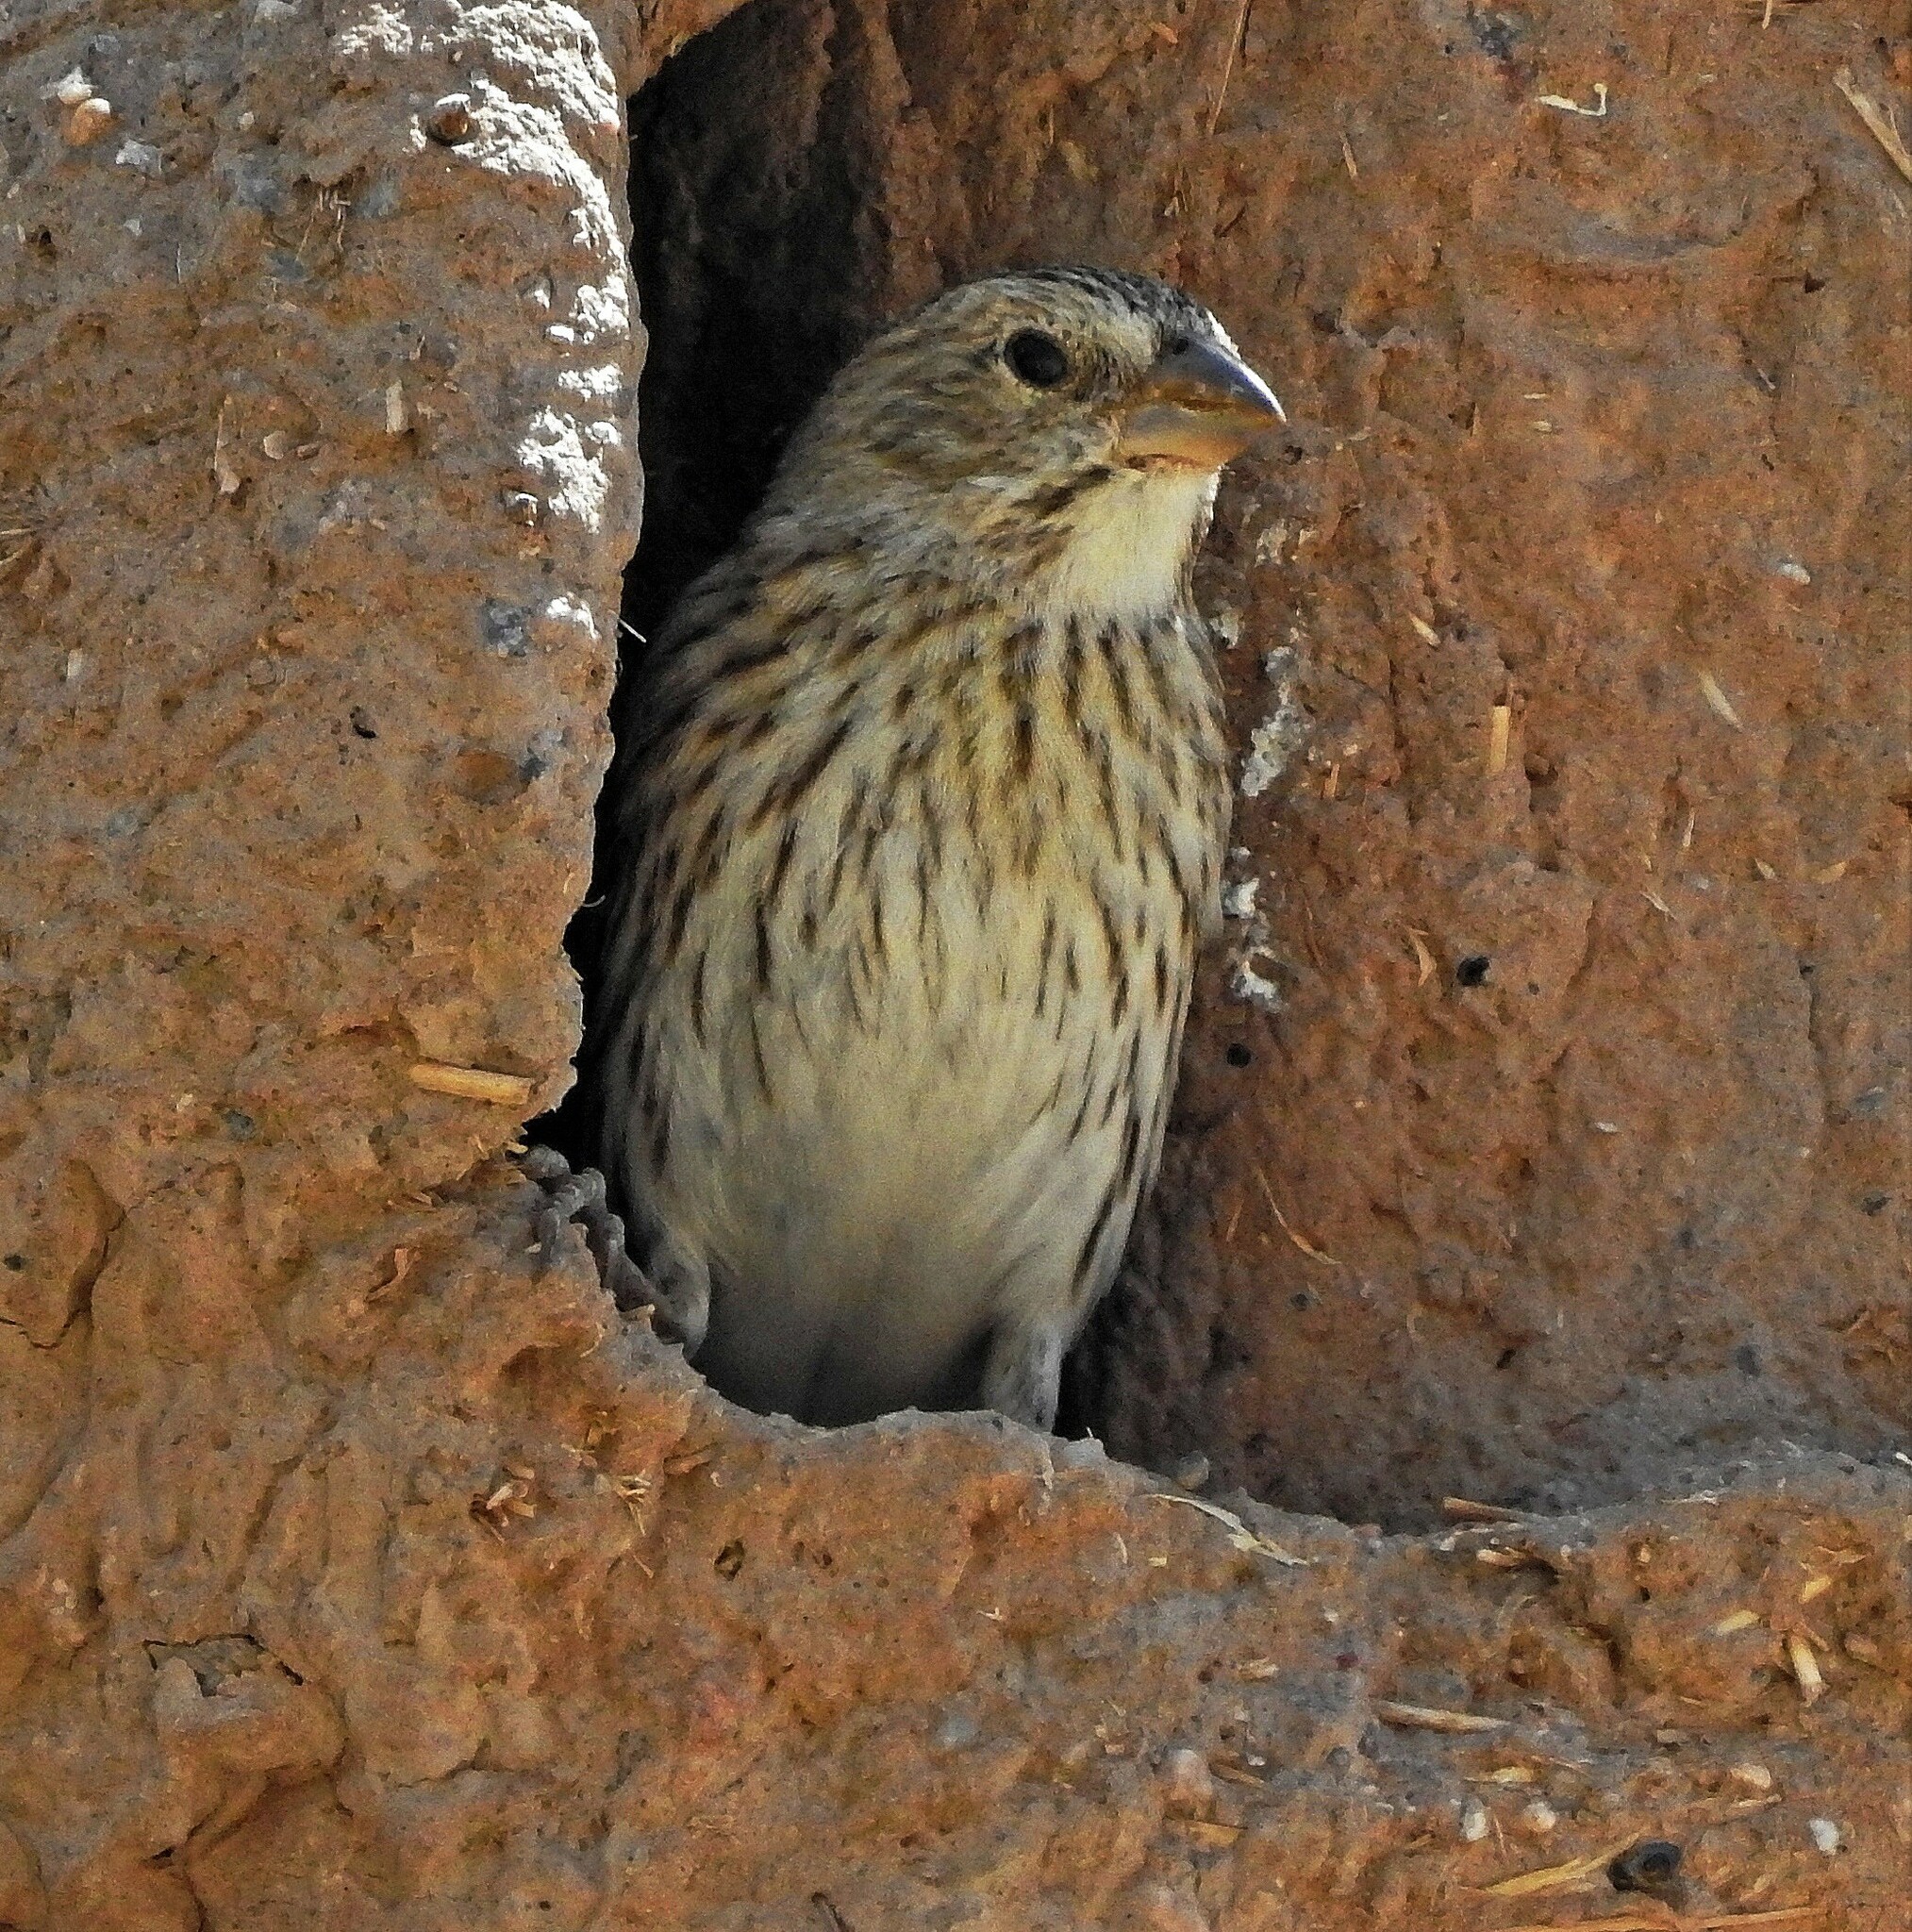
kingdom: Animalia
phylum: Chordata
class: Aves
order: Passeriformes
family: Thraupidae
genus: Sicalis
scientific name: Sicalis flaveola
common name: Saffron finch
